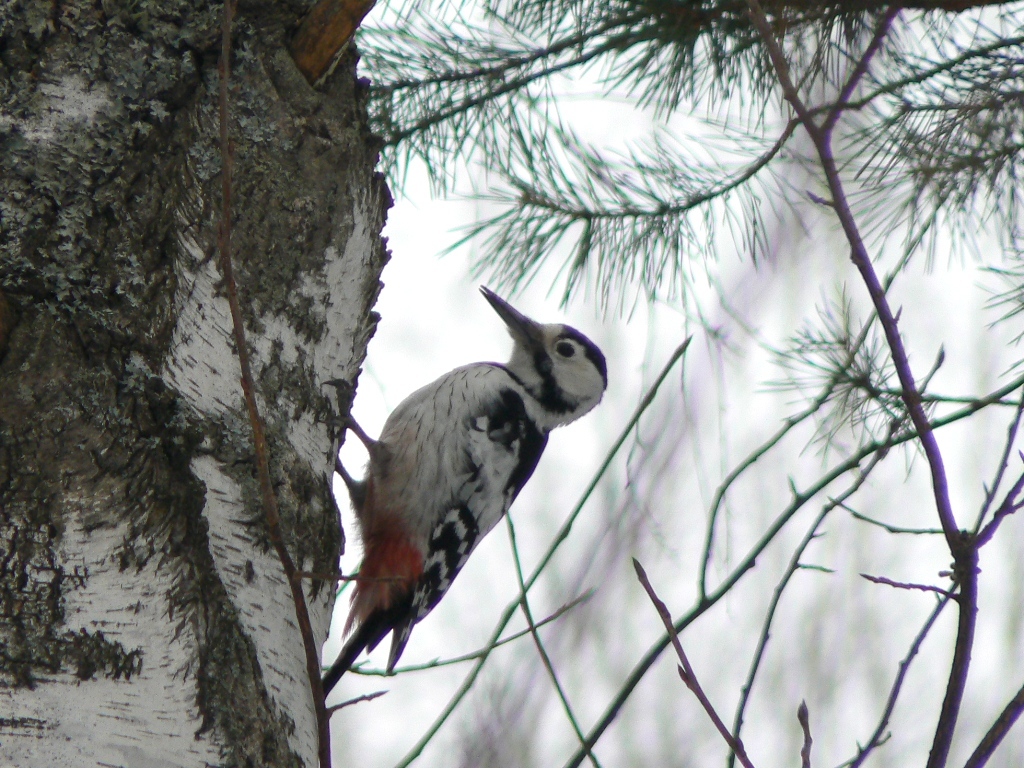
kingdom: Animalia
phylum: Chordata
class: Aves
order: Piciformes
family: Picidae
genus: Dendrocopos
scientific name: Dendrocopos leucotos
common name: White-backed woodpecker
